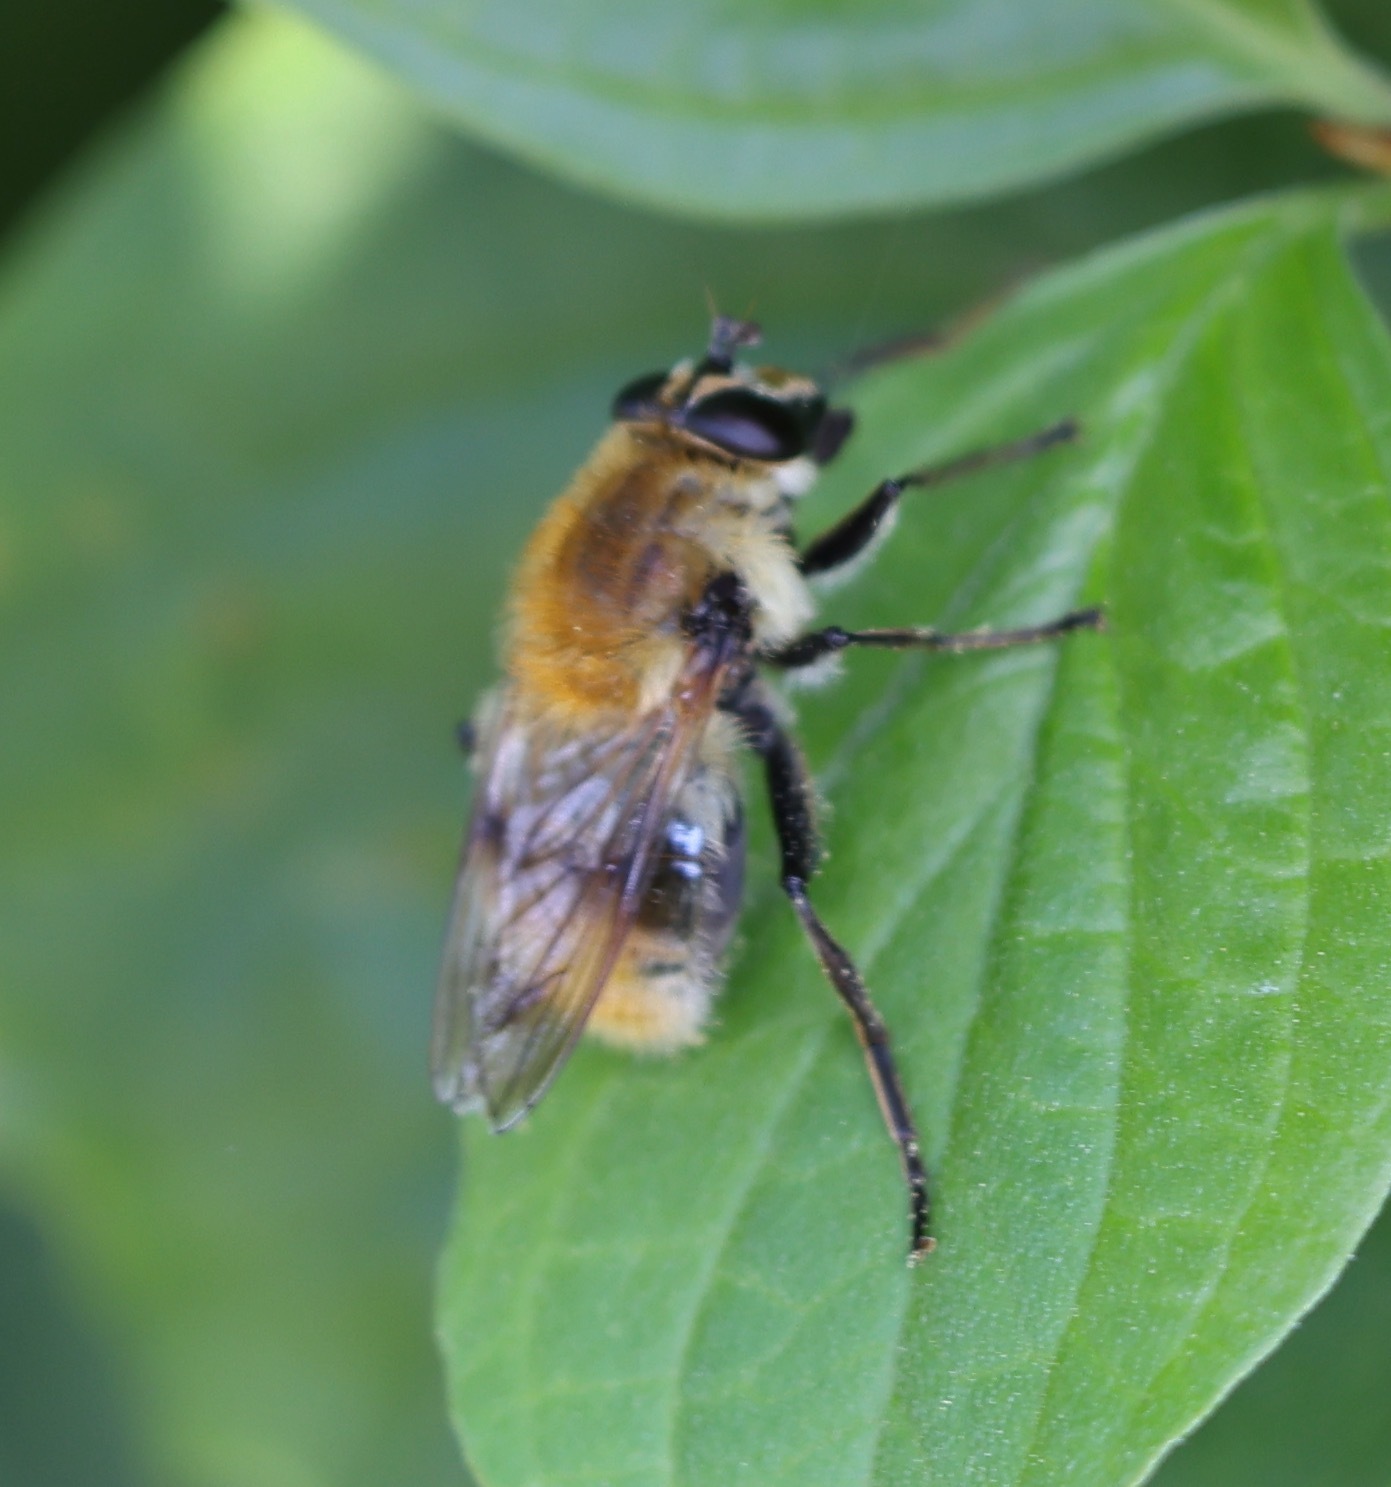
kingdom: Animalia
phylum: Arthropoda
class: Insecta
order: Diptera
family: Syrphidae
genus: Criorhina
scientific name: Criorhina floccosa
